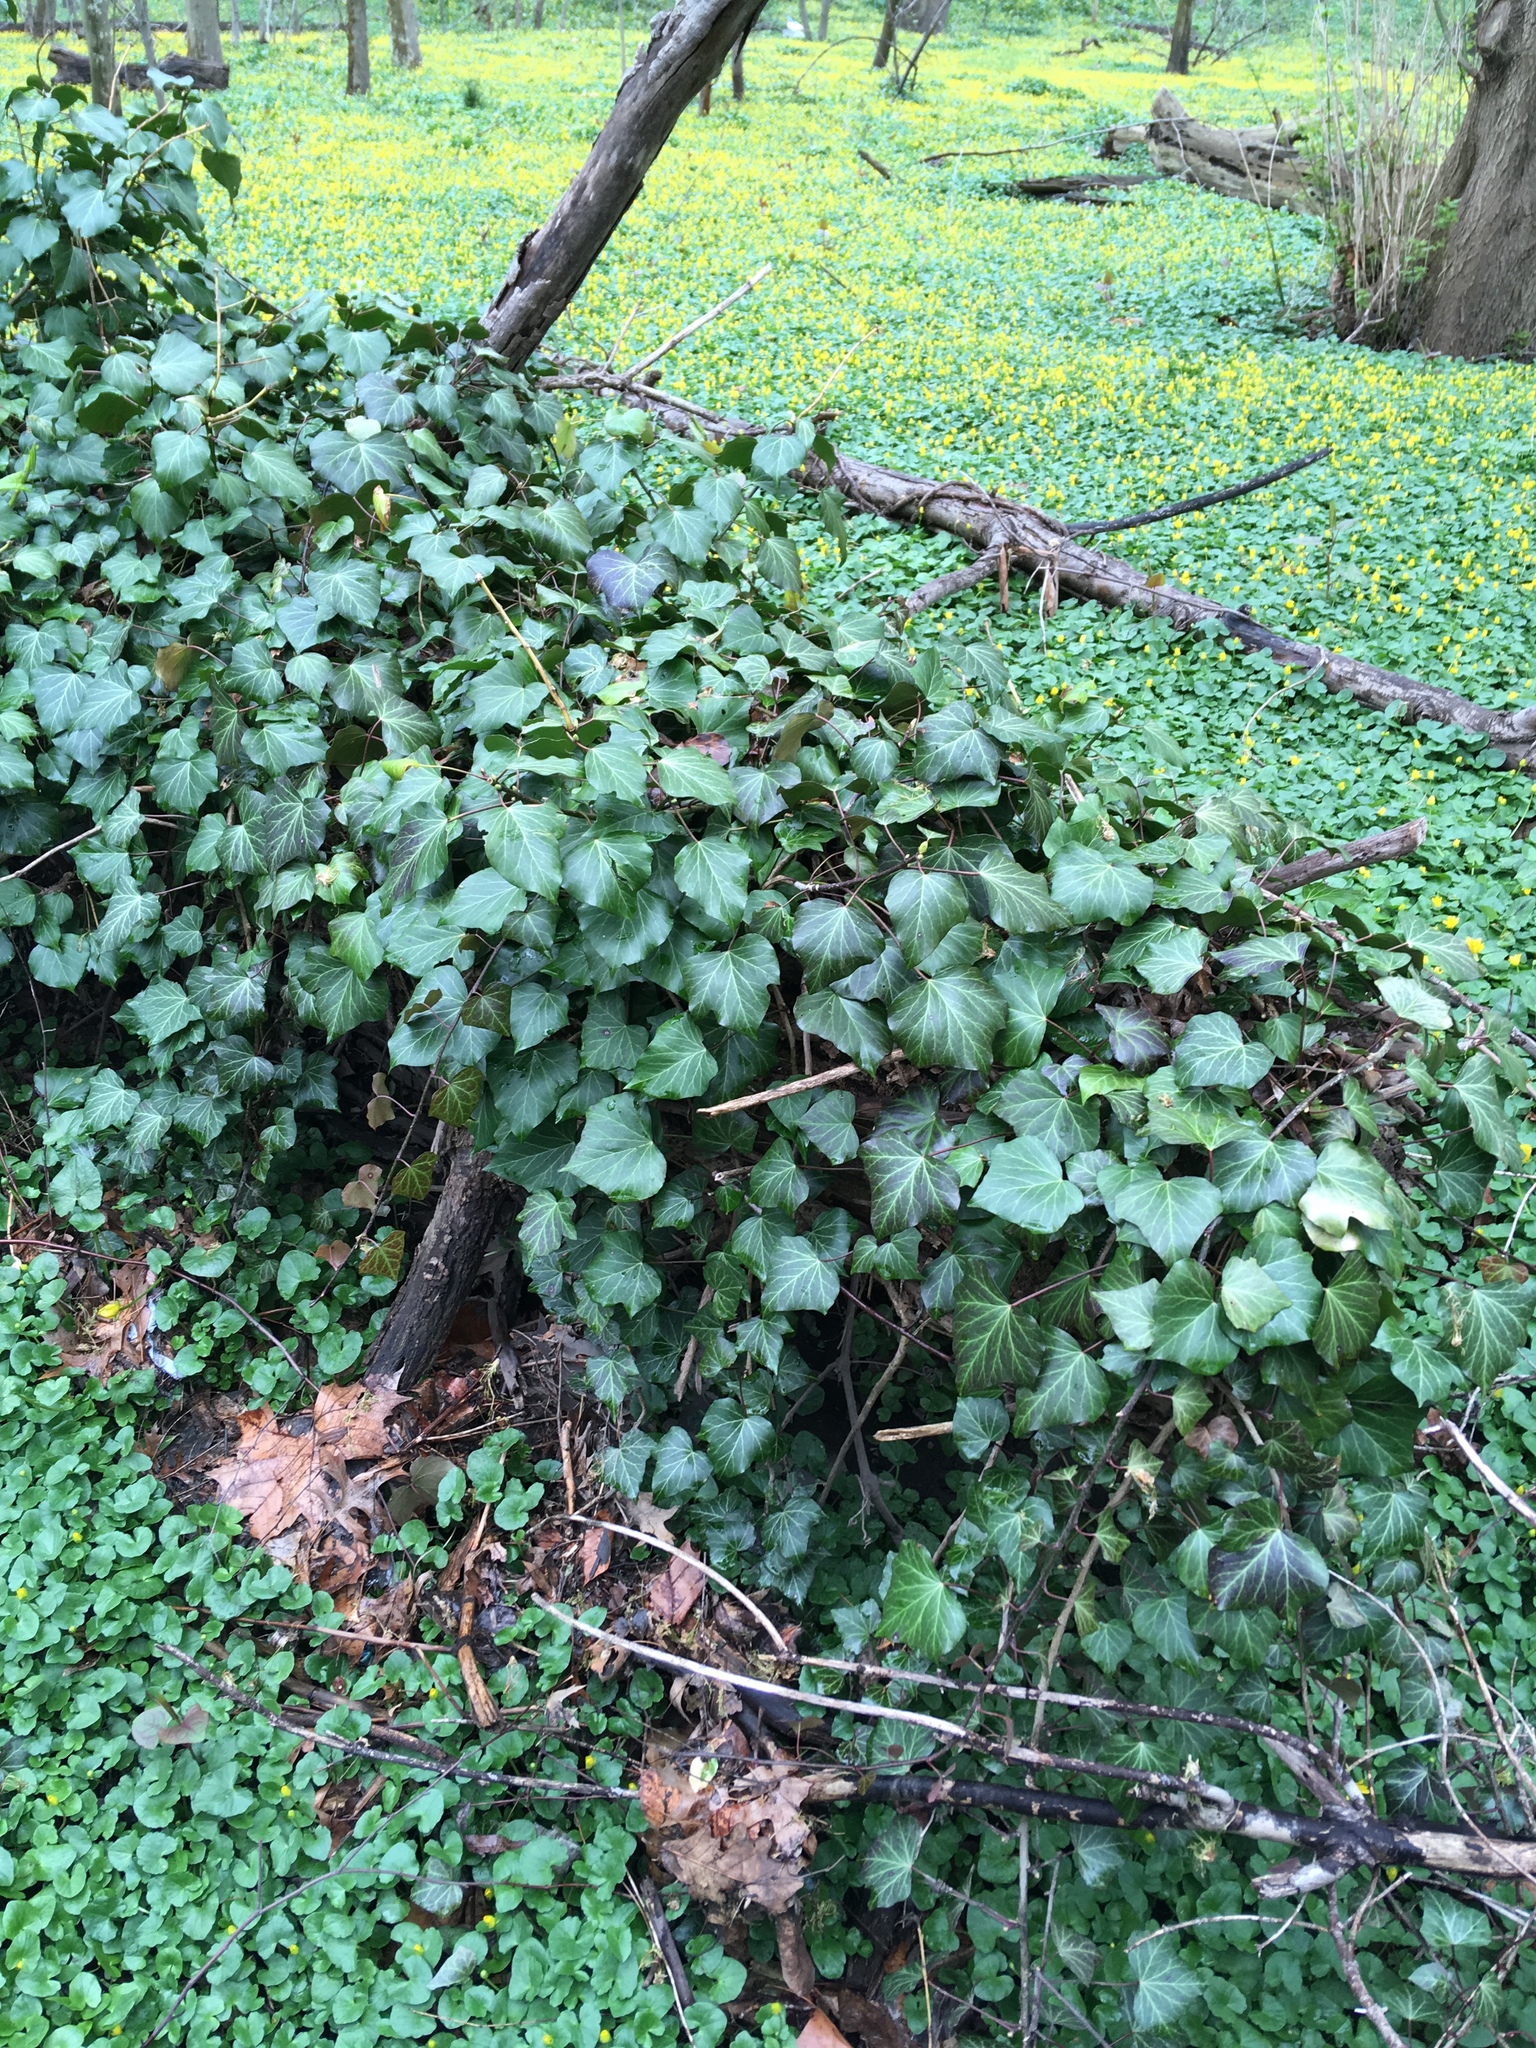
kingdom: Plantae
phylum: Tracheophyta
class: Magnoliopsida
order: Apiales
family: Araliaceae
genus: Hedera
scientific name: Hedera helix
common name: Ivy
